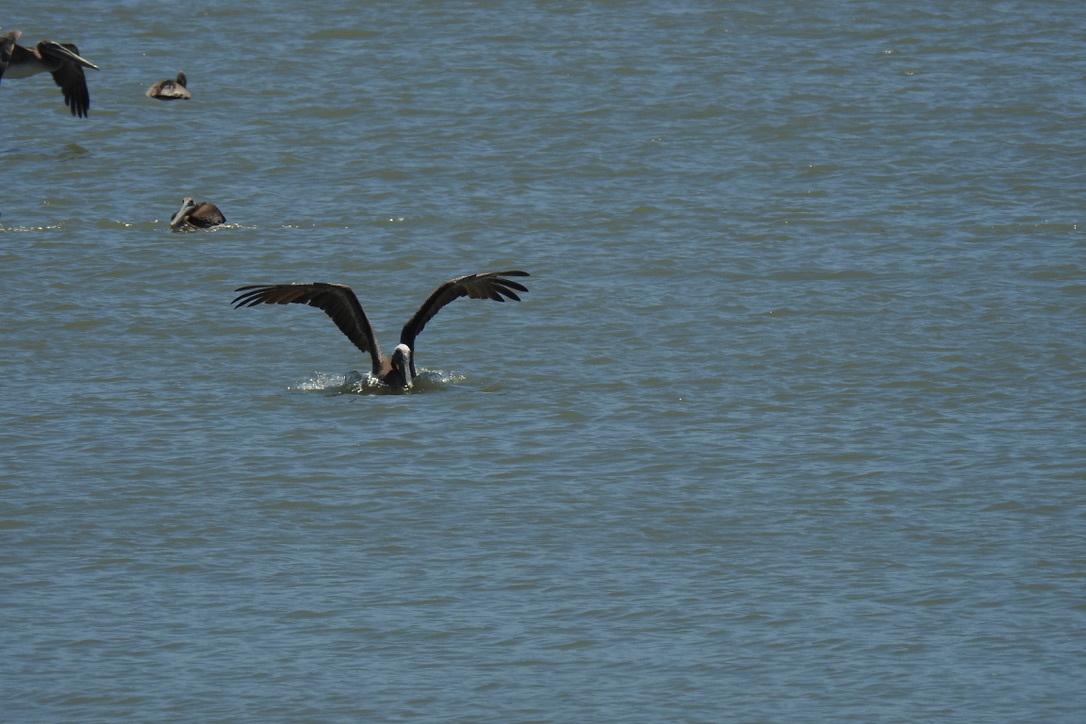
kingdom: Animalia
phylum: Chordata
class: Aves
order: Pelecaniformes
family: Pelecanidae
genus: Pelecanus
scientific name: Pelecanus occidentalis
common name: Brown pelican
